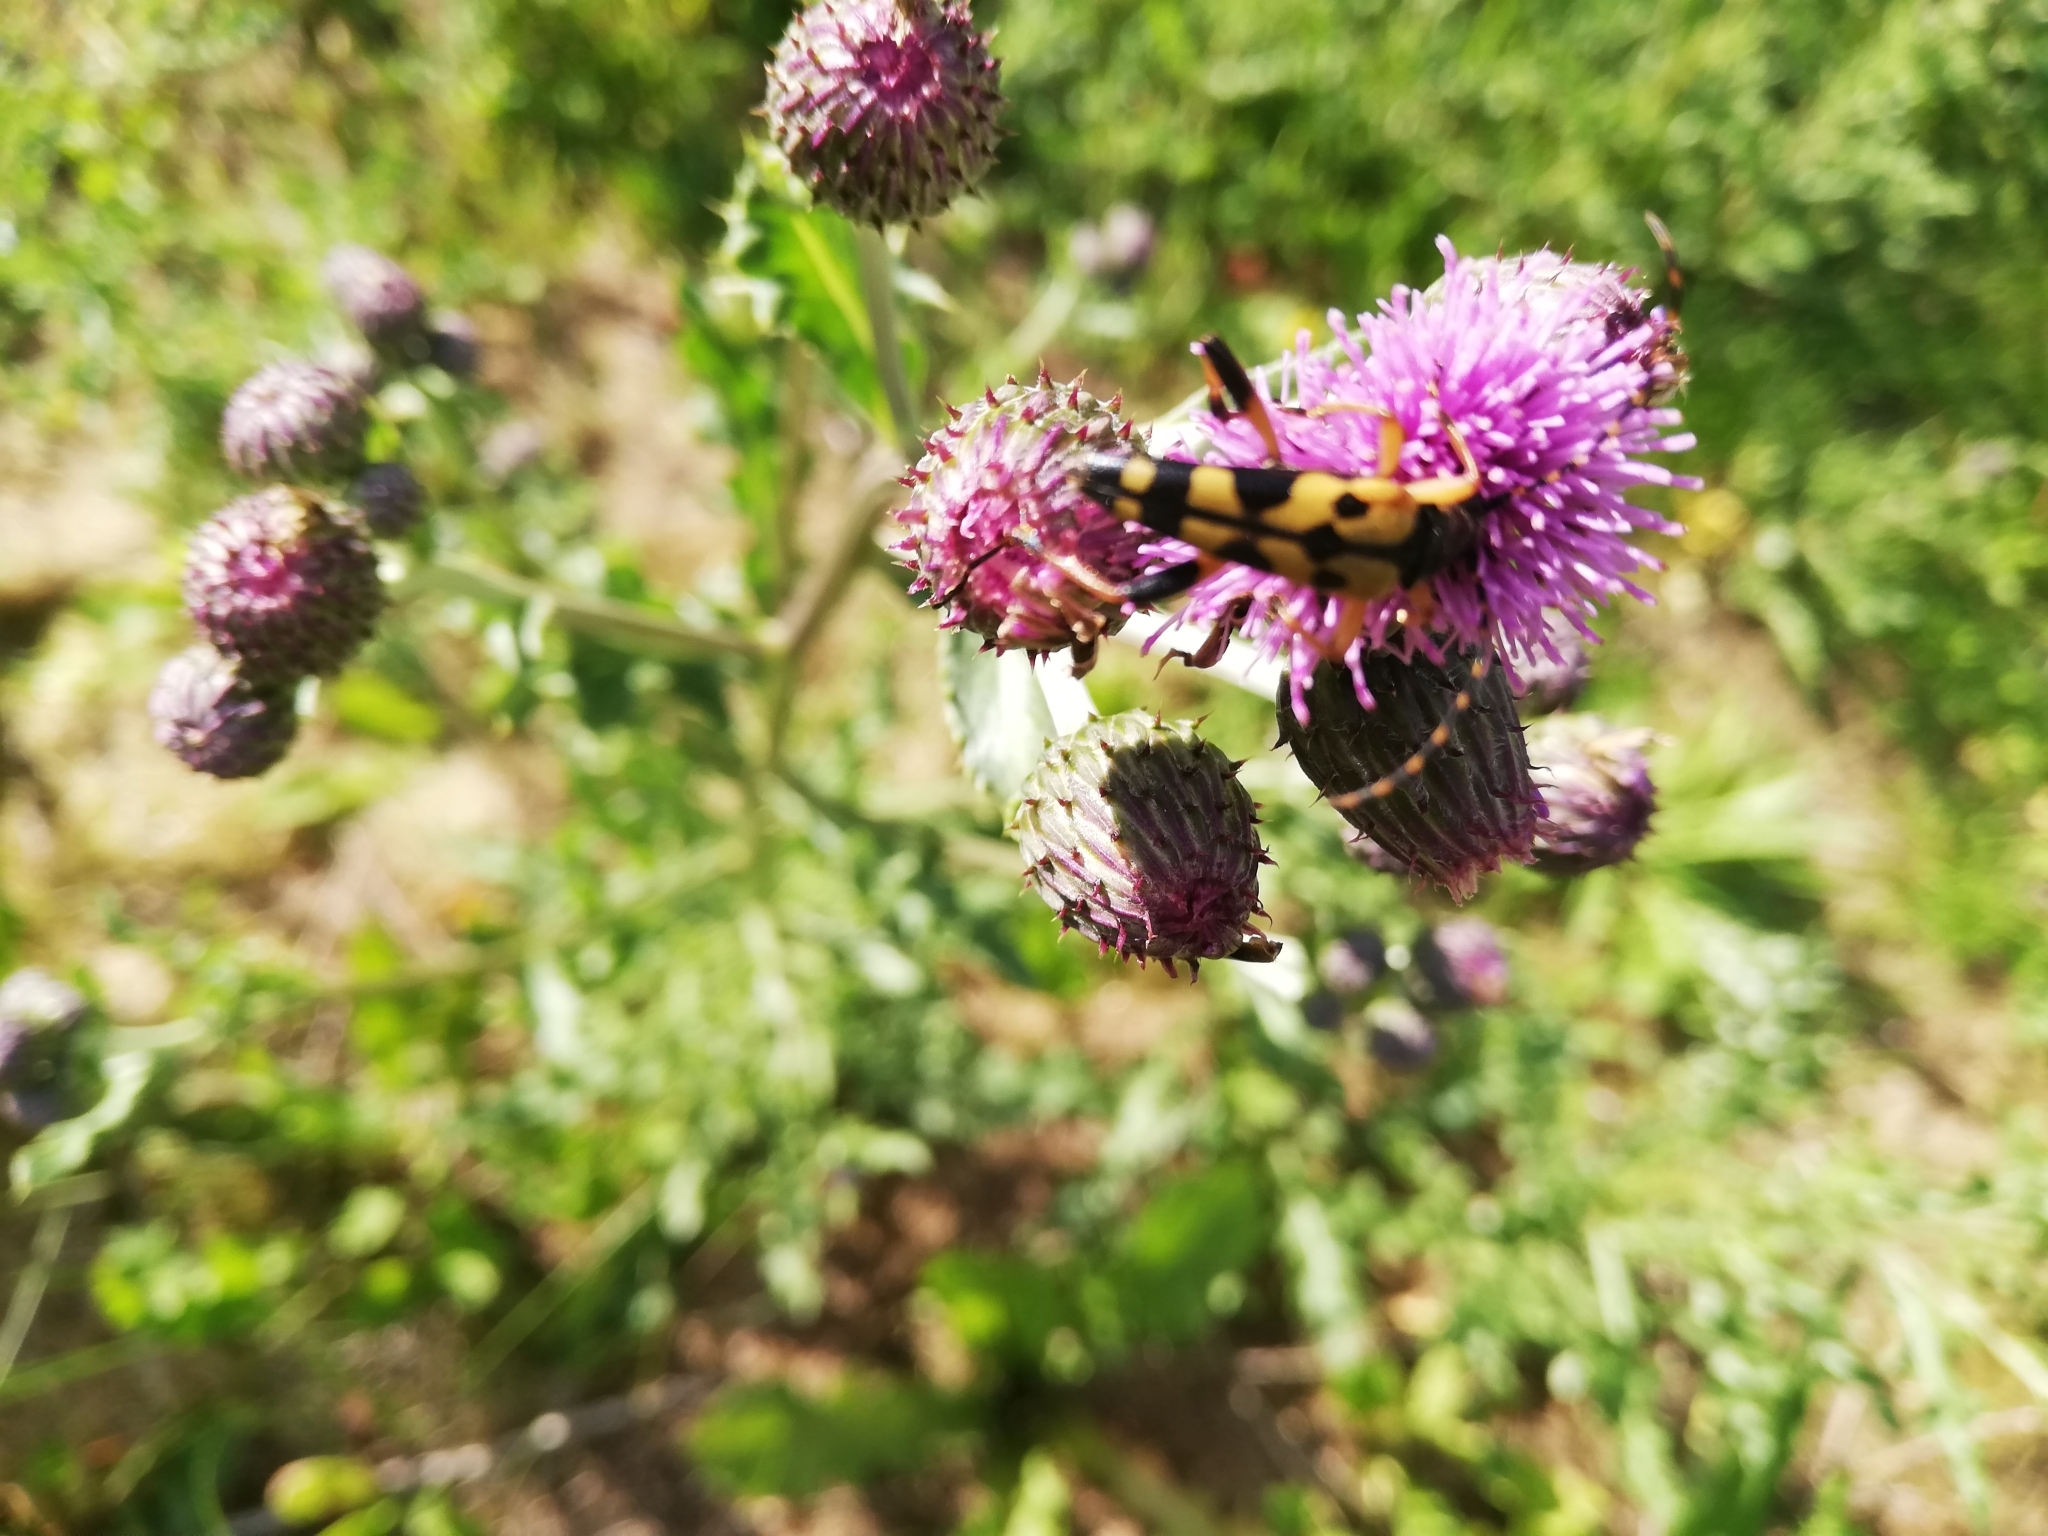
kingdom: Animalia
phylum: Arthropoda
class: Insecta
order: Coleoptera
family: Cerambycidae
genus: Rutpela
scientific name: Rutpela maculata
